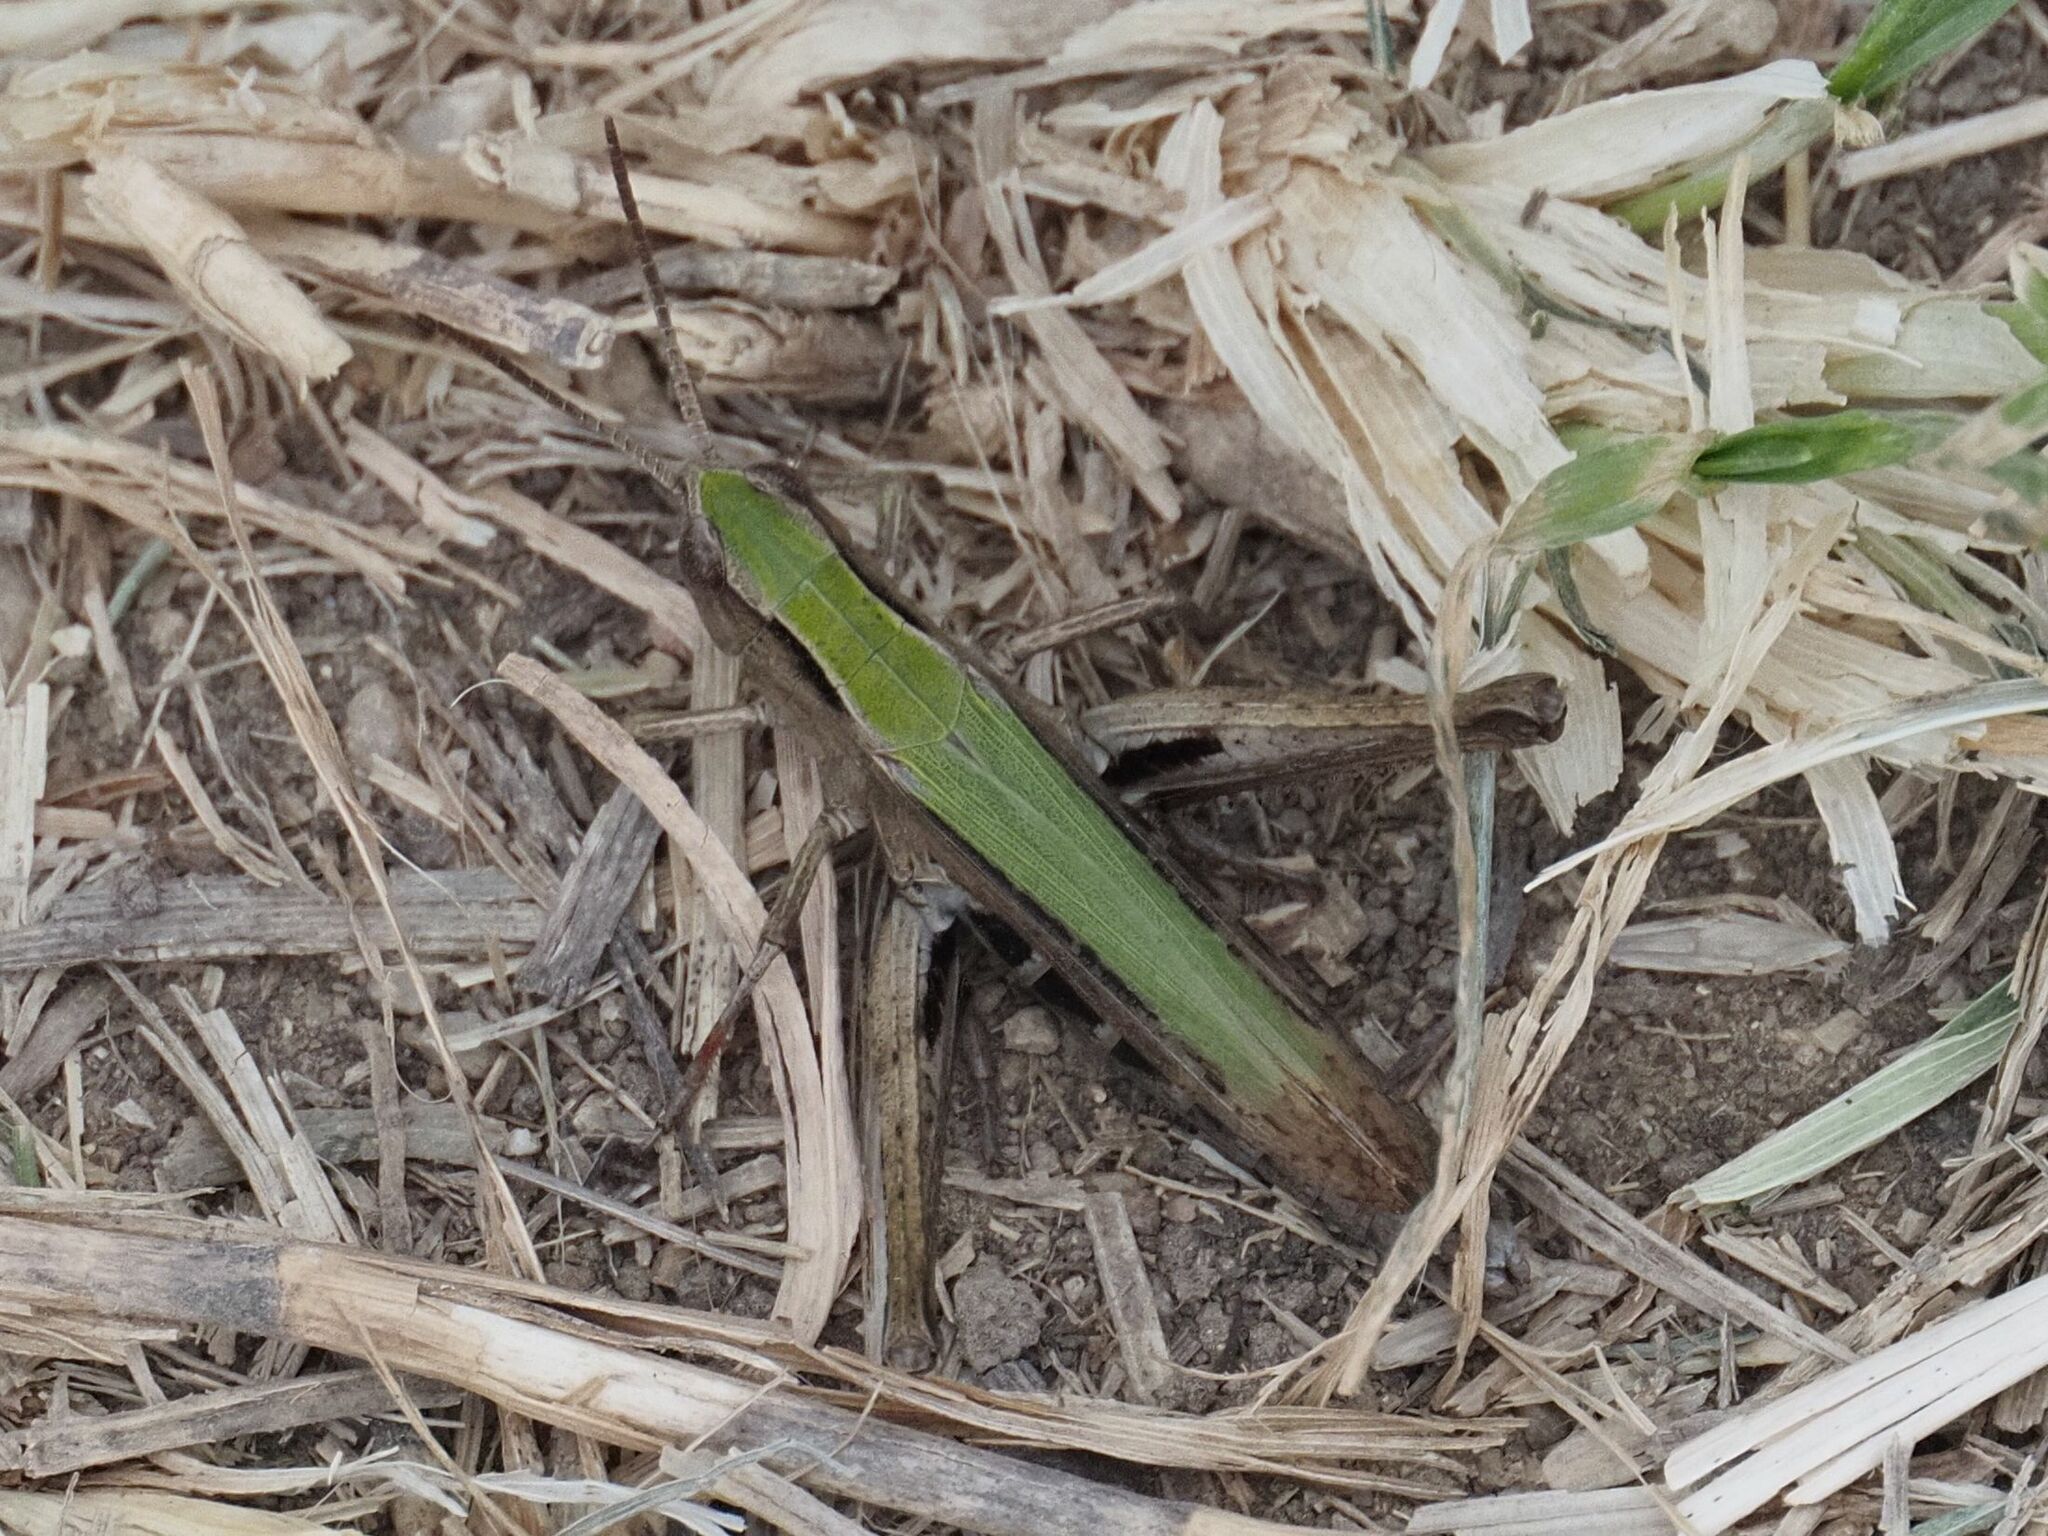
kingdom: Animalia
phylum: Arthropoda
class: Insecta
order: Orthoptera
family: Acrididae
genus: Chorthippus
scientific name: Chorthippus dorsatus
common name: Steppe grasshopper
